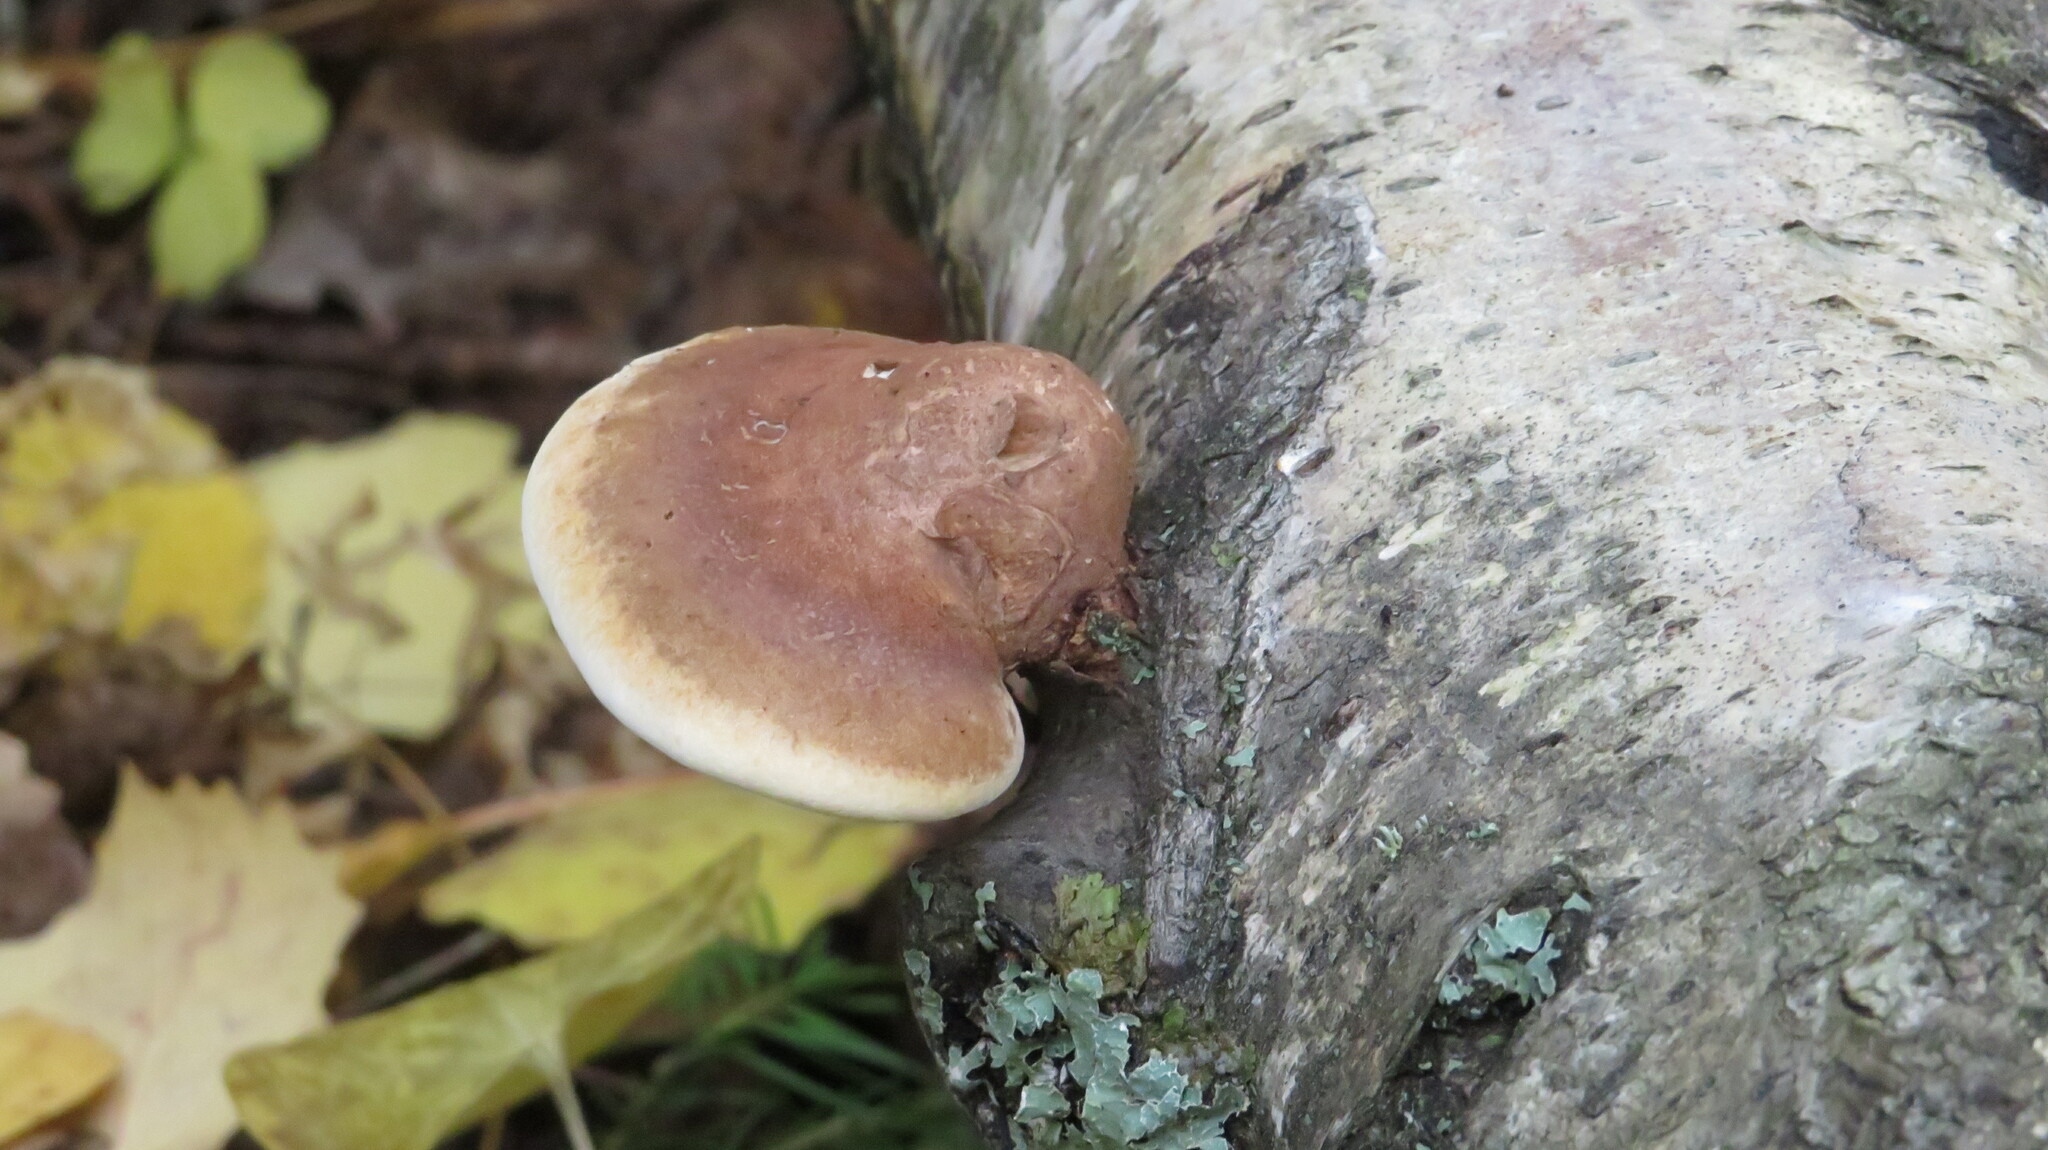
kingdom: Fungi
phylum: Basidiomycota
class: Agaricomycetes
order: Polyporales
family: Fomitopsidaceae
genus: Fomitopsis
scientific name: Fomitopsis betulina
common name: Birch polypore
